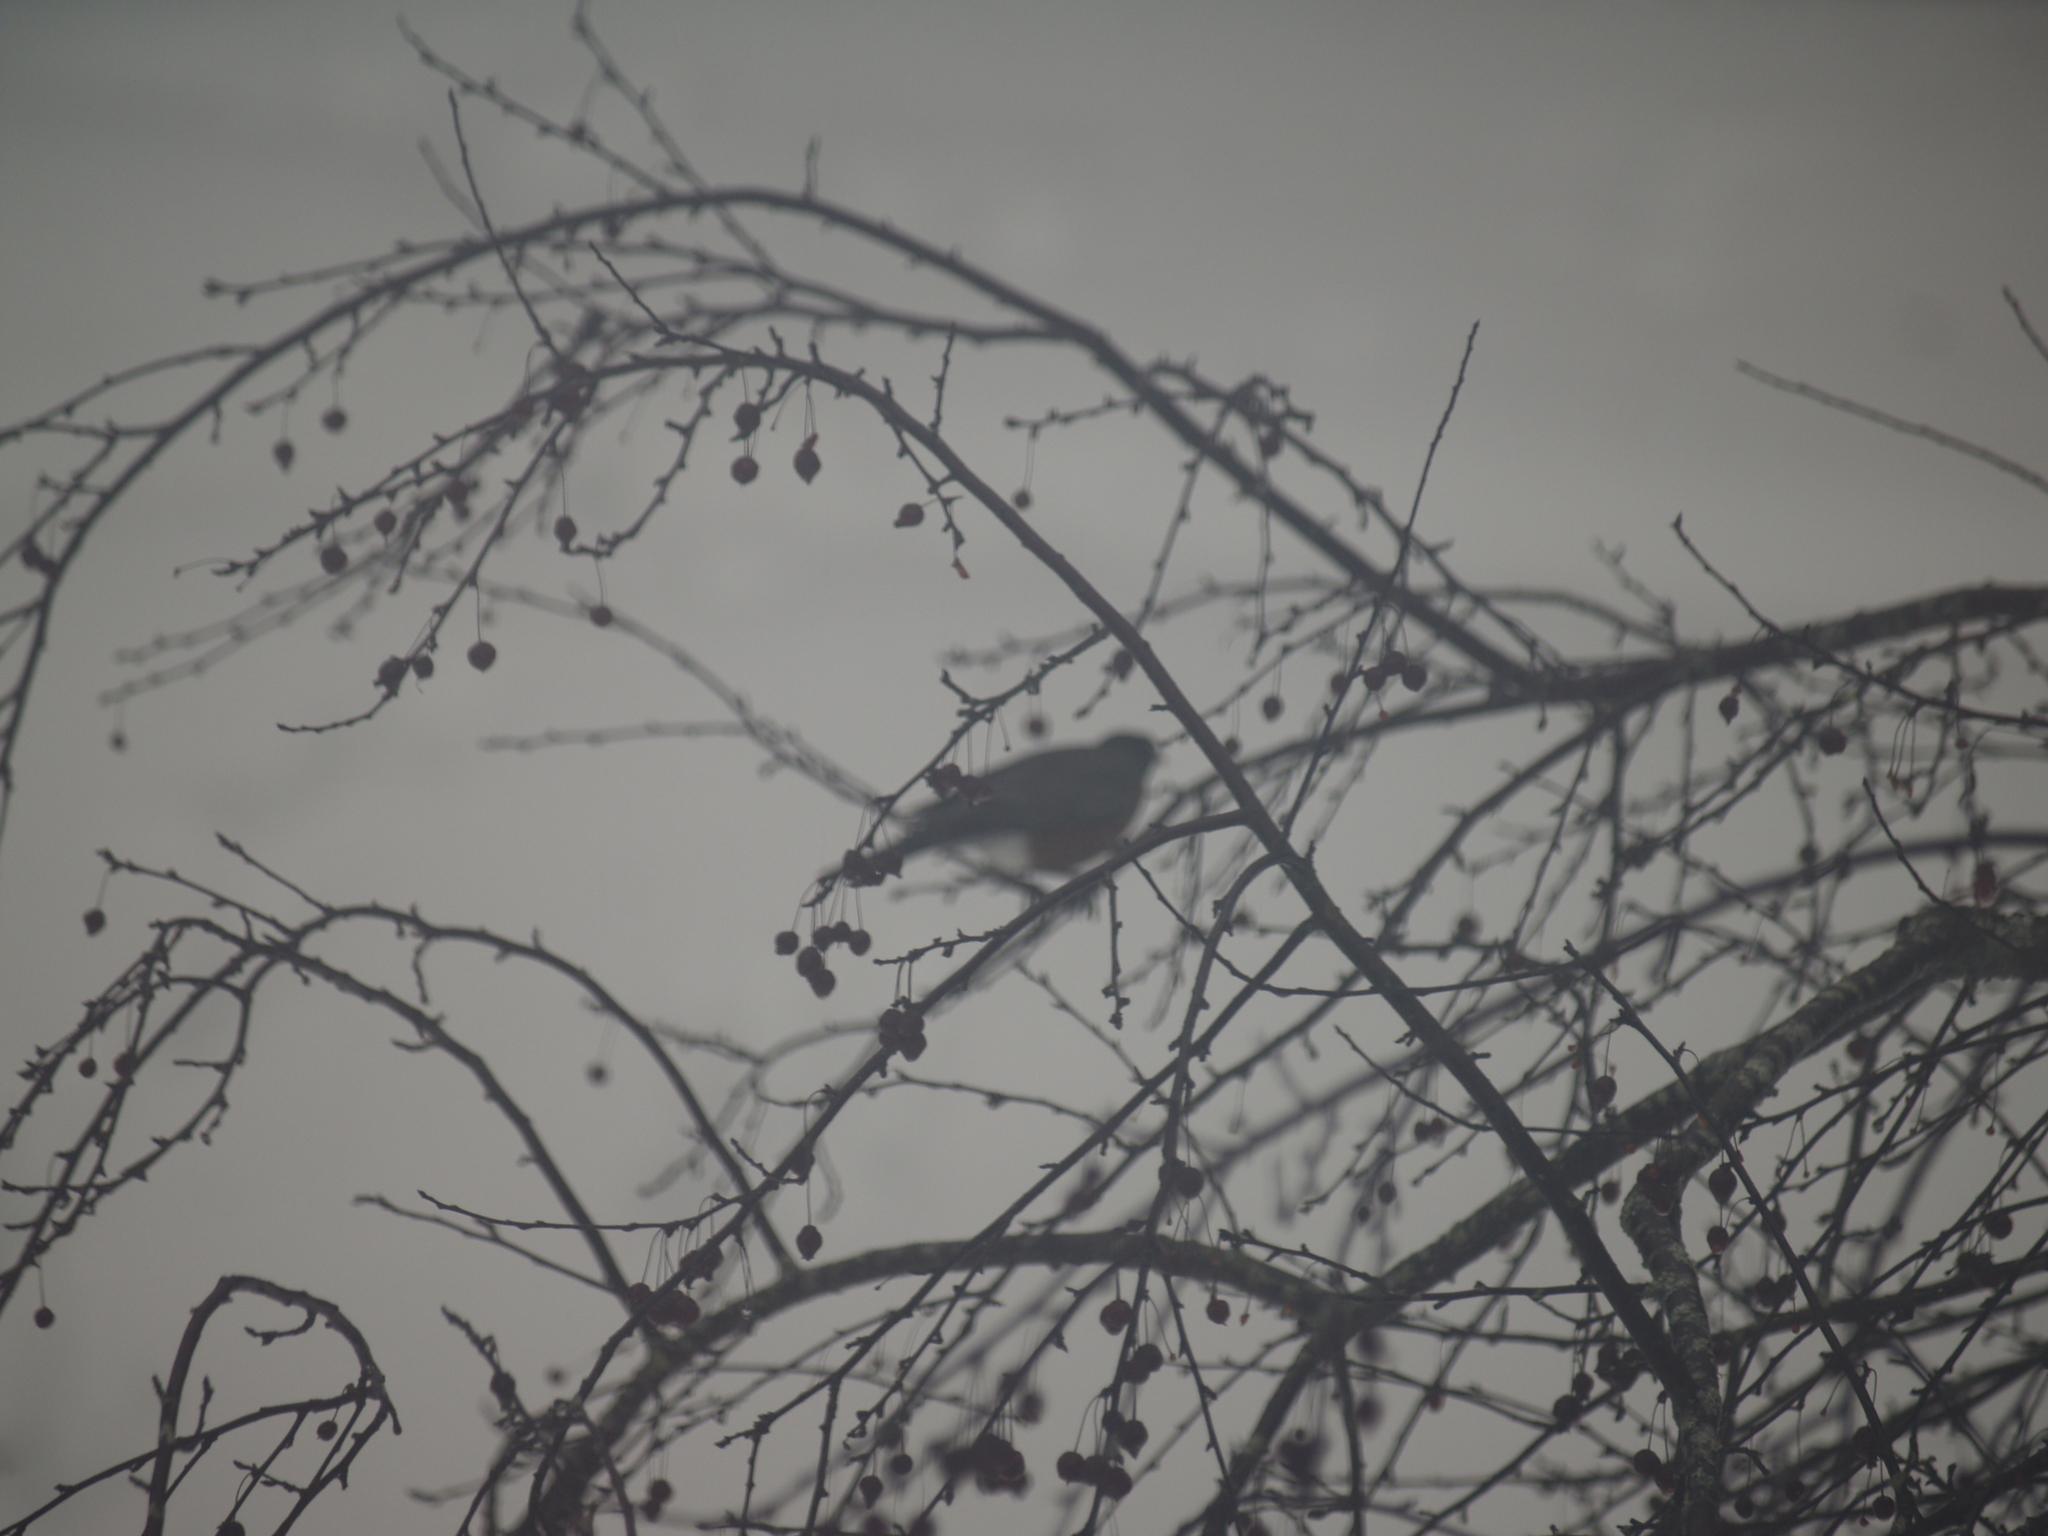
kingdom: Animalia
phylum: Chordata
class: Aves
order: Passeriformes
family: Turdidae
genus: Turdus
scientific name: Turdus migratorius
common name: American robin
